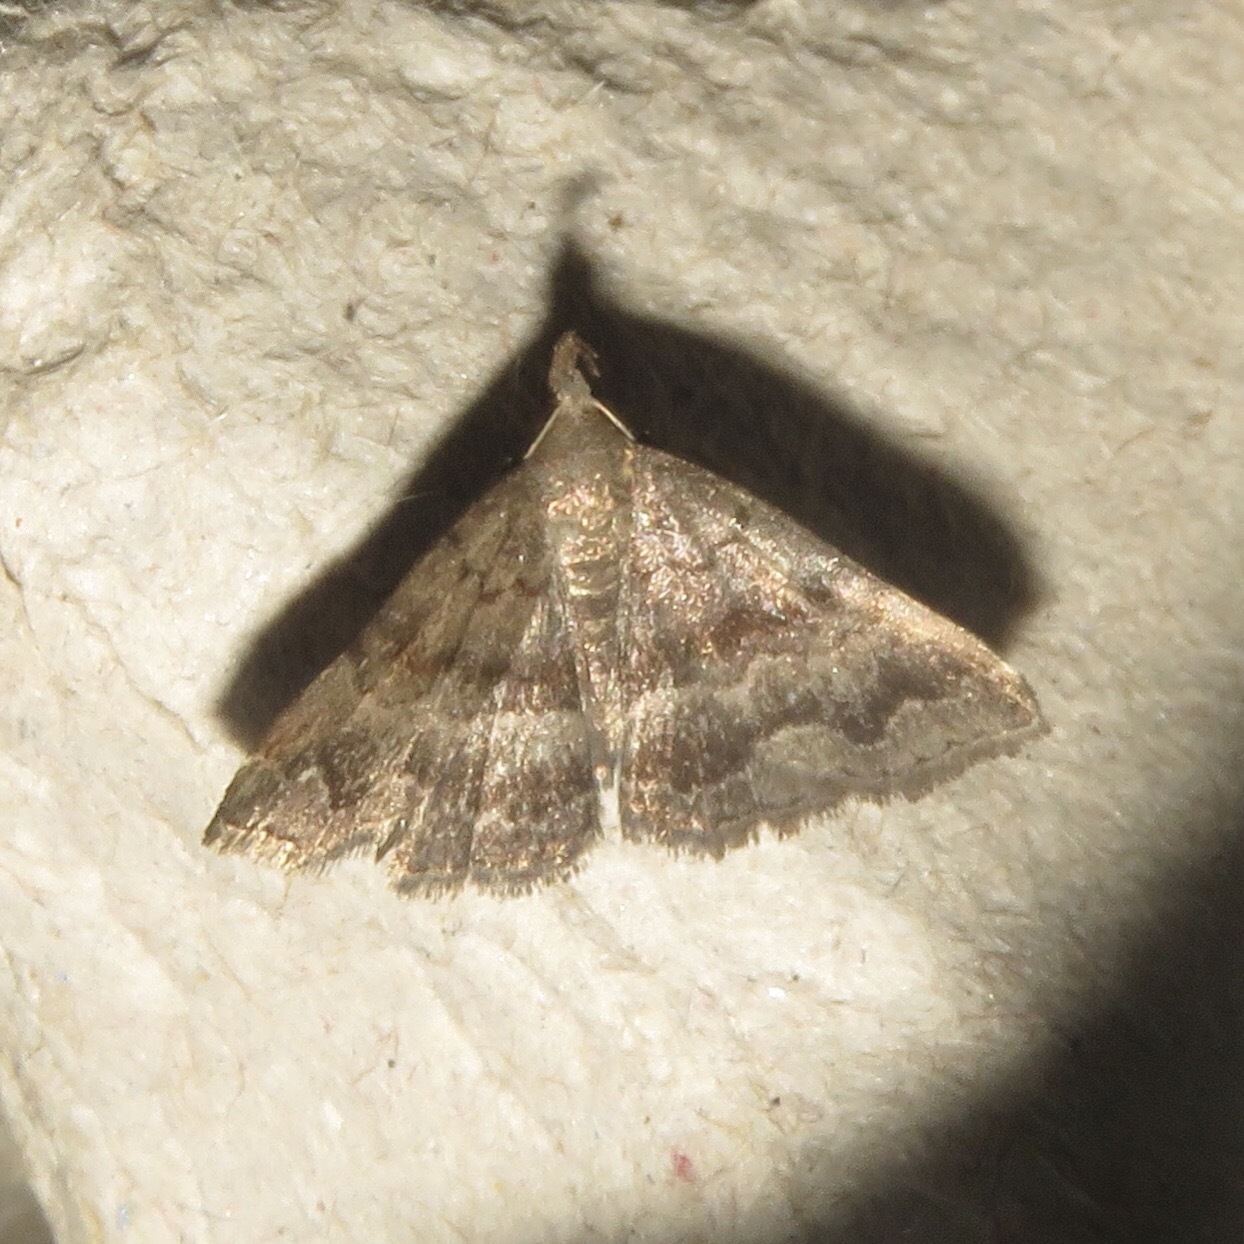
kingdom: Animalia
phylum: Arthropoda
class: Insecta
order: Lepidoptera
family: Erebidae
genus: Phalaenostola
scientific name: Phalaenostola larentioides
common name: Black-banded owlet
